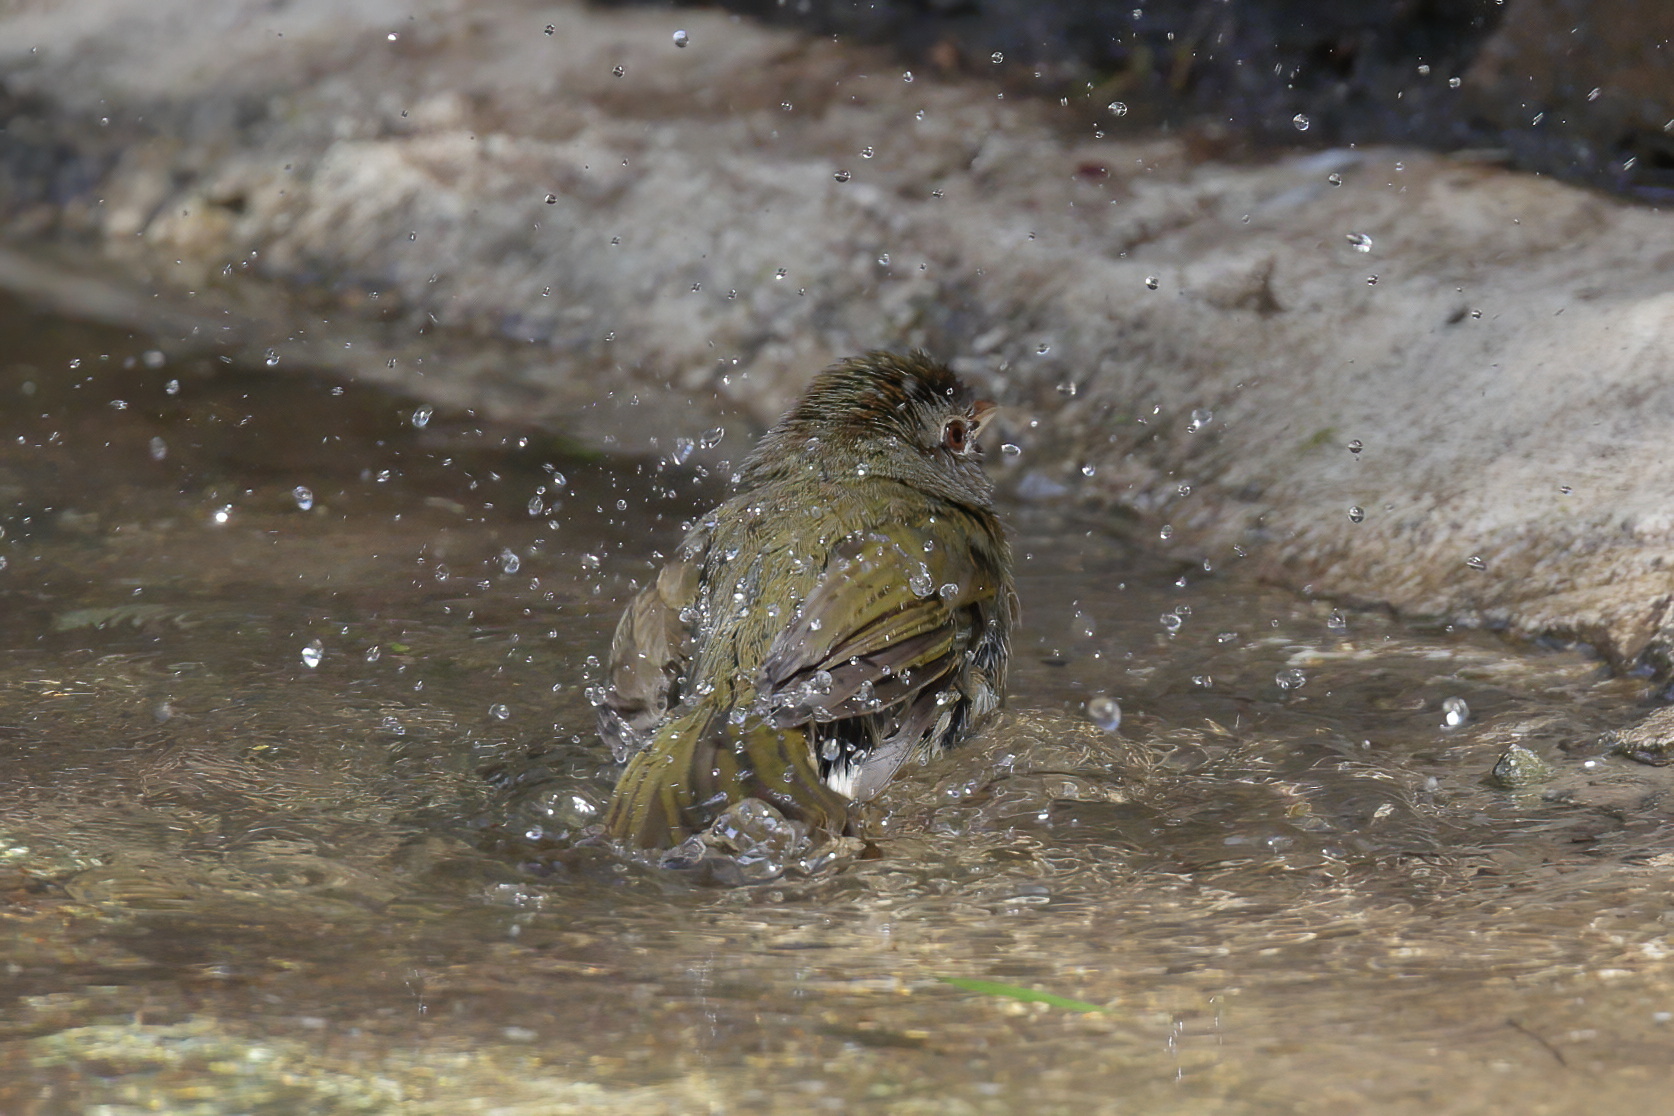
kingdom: Animalia
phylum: Chordata
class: Aves
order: Passeriformes
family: Passerellidae
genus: Arremonops
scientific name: Arremonops rufivirgatus
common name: Olive sparrow
